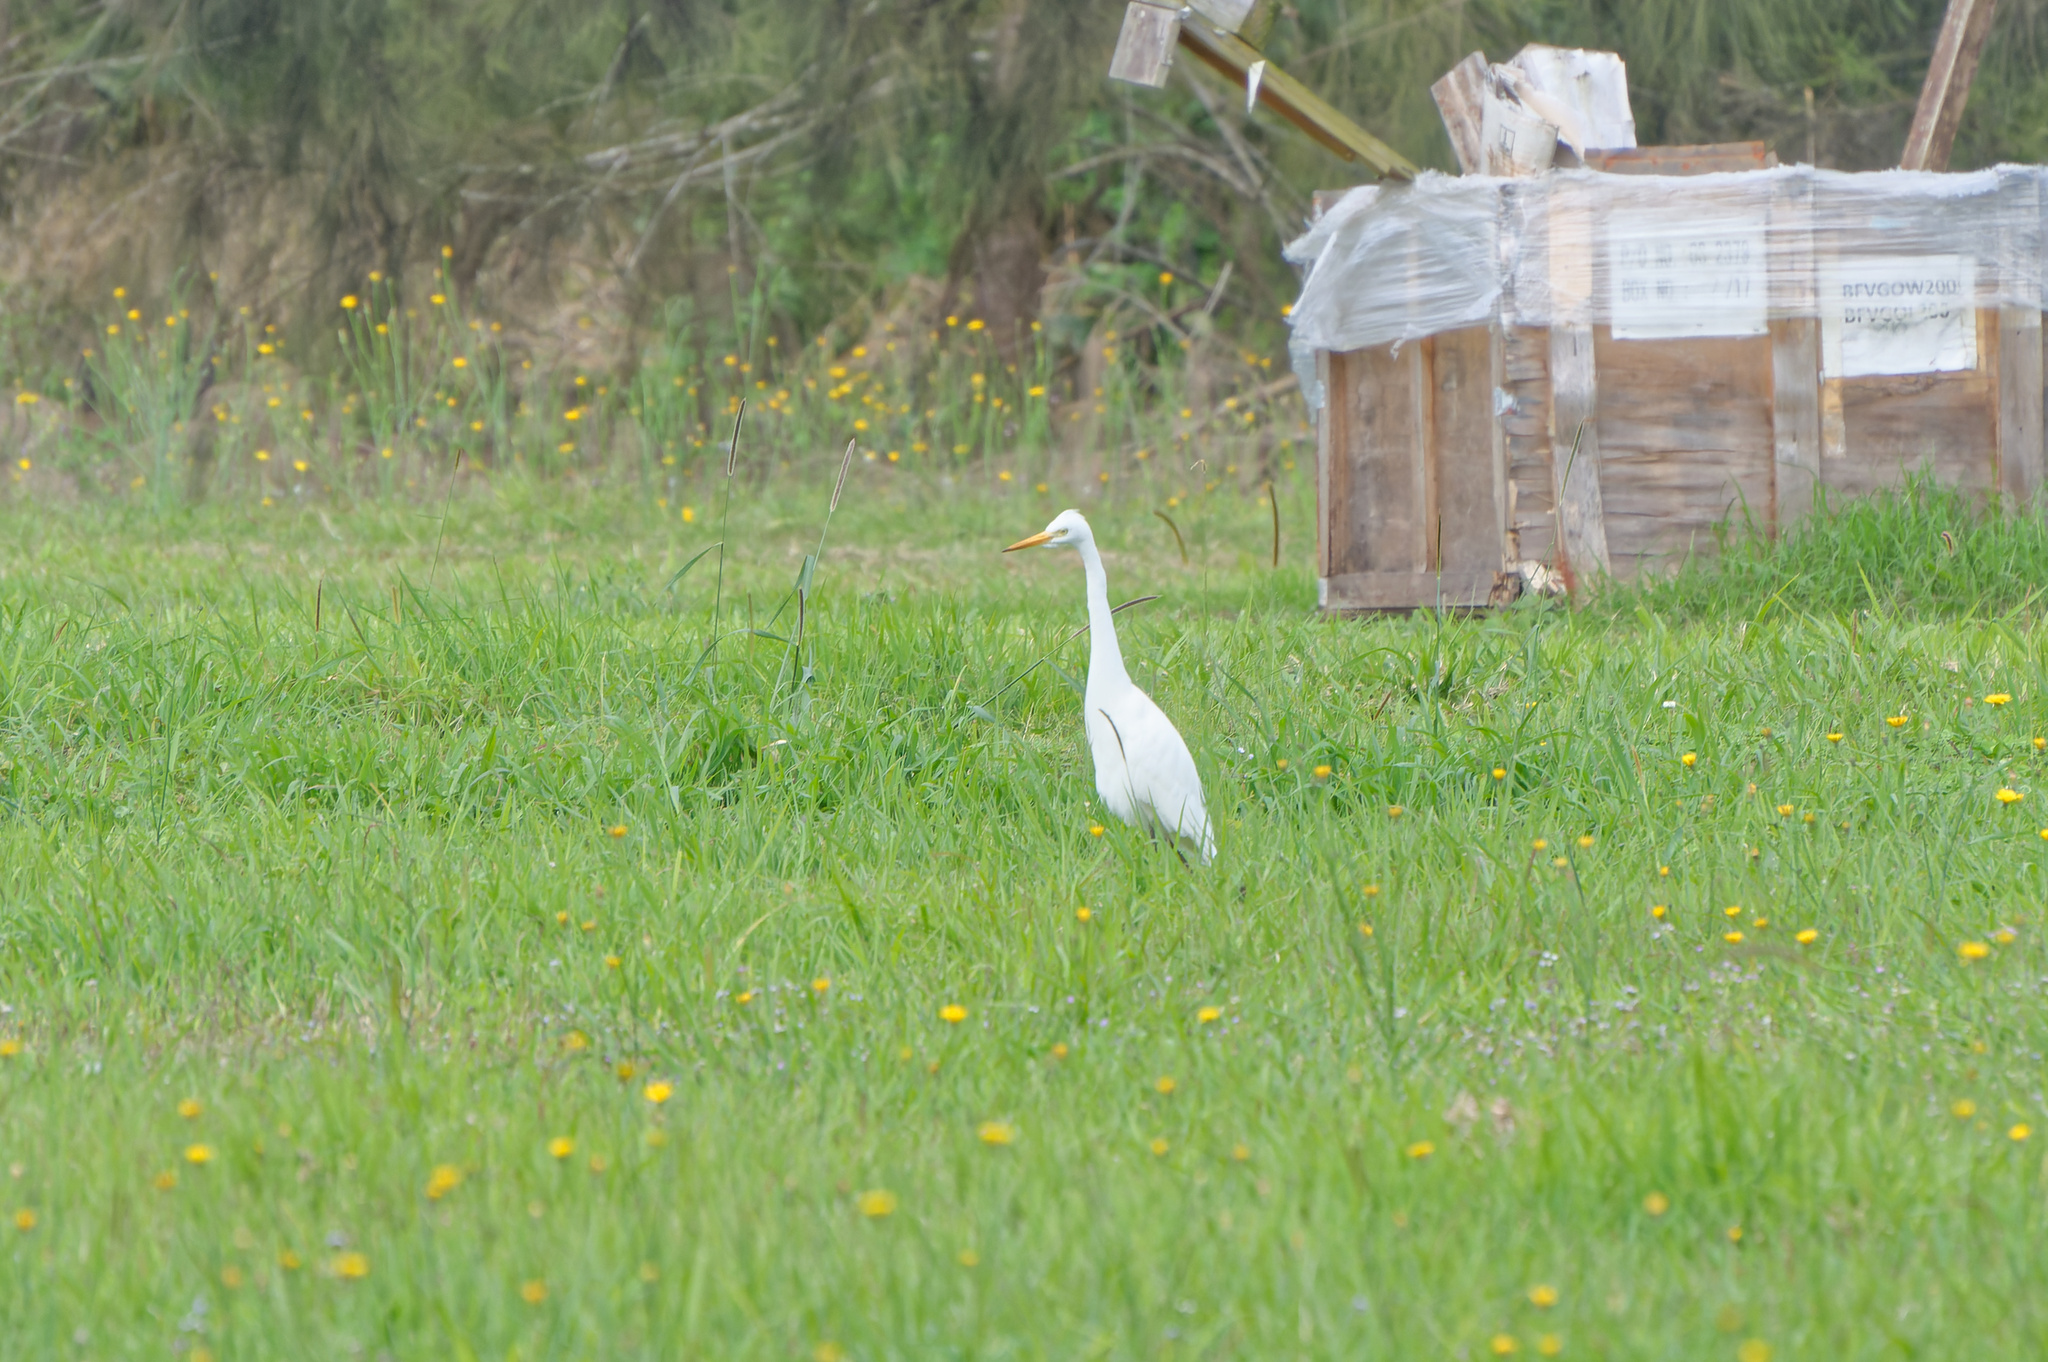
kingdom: Animalia
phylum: Chordata
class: Aves
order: Pelecaniformes
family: Ardeidae
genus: Egretta
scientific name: Egretta intermedia
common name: Intermediate egret
